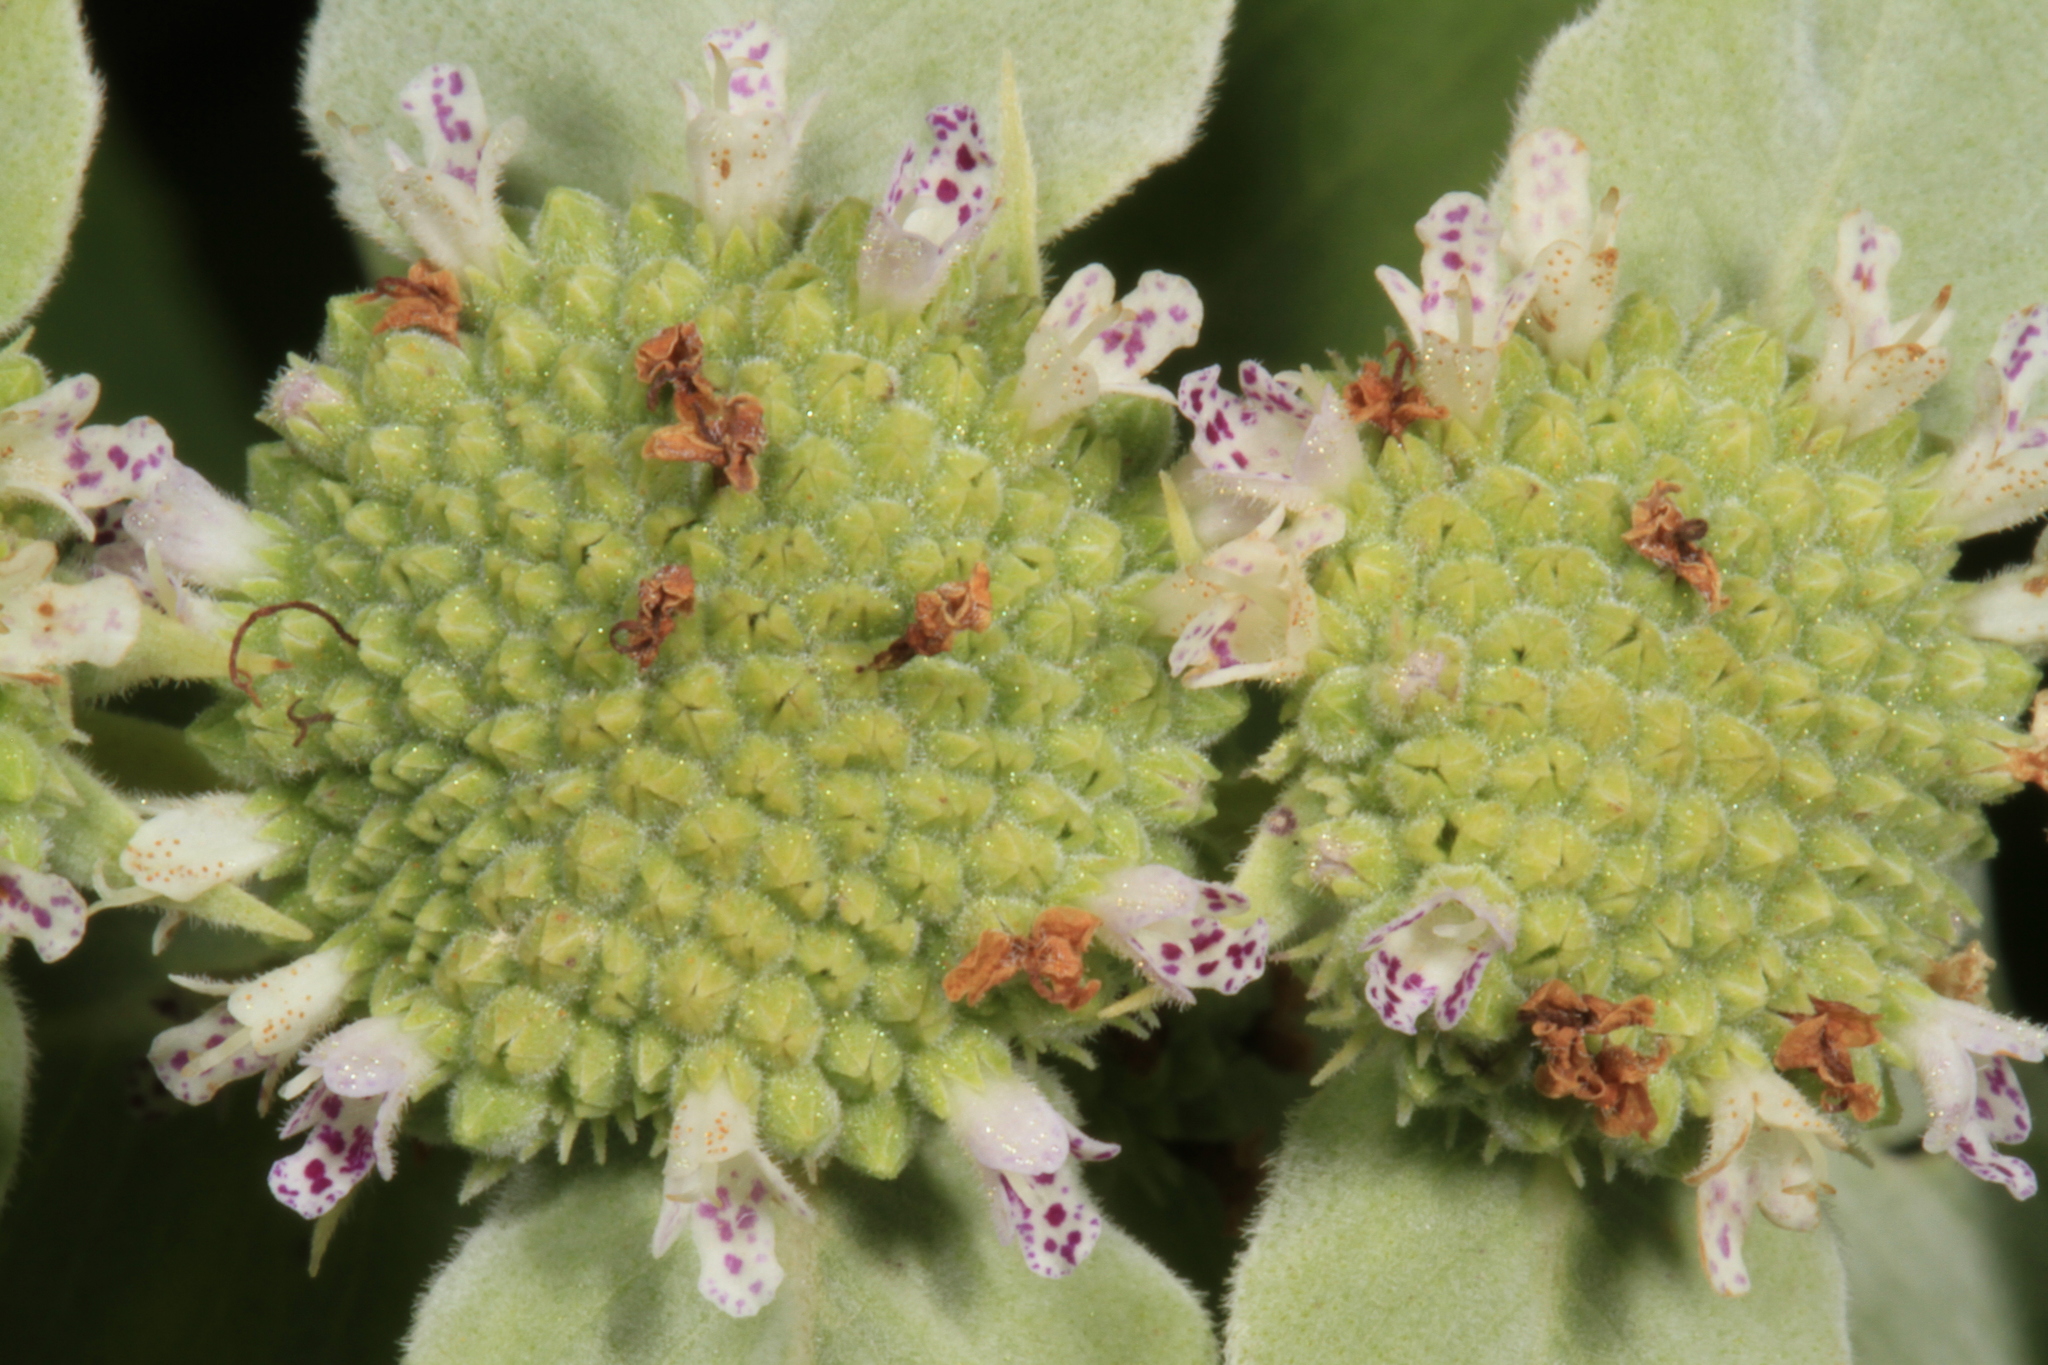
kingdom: Plantae
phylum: Tracheophyta
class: Magnoliopsida
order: Lamiales
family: Lamiaceae
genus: Pycnanthemum
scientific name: Pycnanthemum muticum
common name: Blunt mountain-mint
